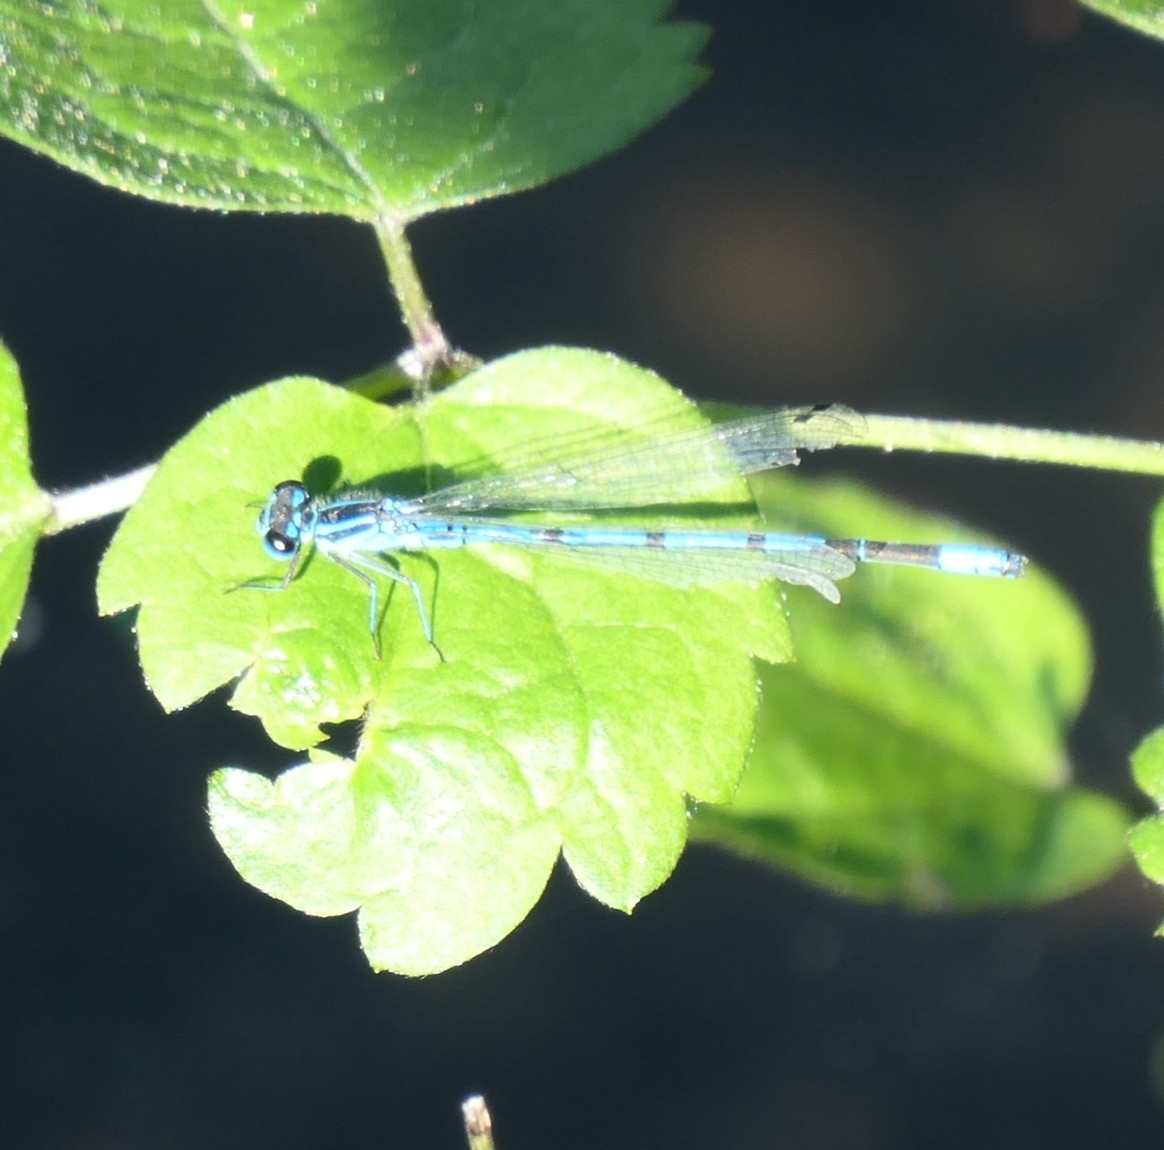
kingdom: Animalia
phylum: Arthropoda
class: Insecta
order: Odonata
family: Coenagrionidae
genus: Coenagrion
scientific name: Coenagrion puella
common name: Azure damselfly
